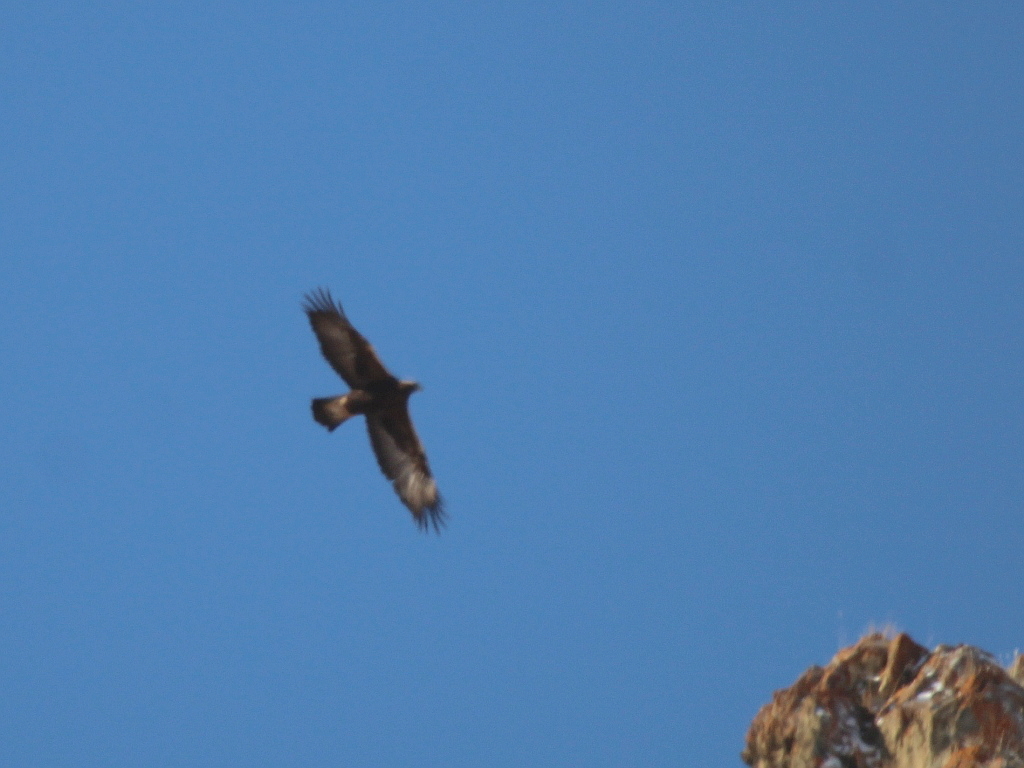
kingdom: Animalia
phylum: Chordata
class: Aves
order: Accipitriformes
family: Accipitridae
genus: Aquila
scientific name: Aquila chrysaetos
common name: Golden eagle
